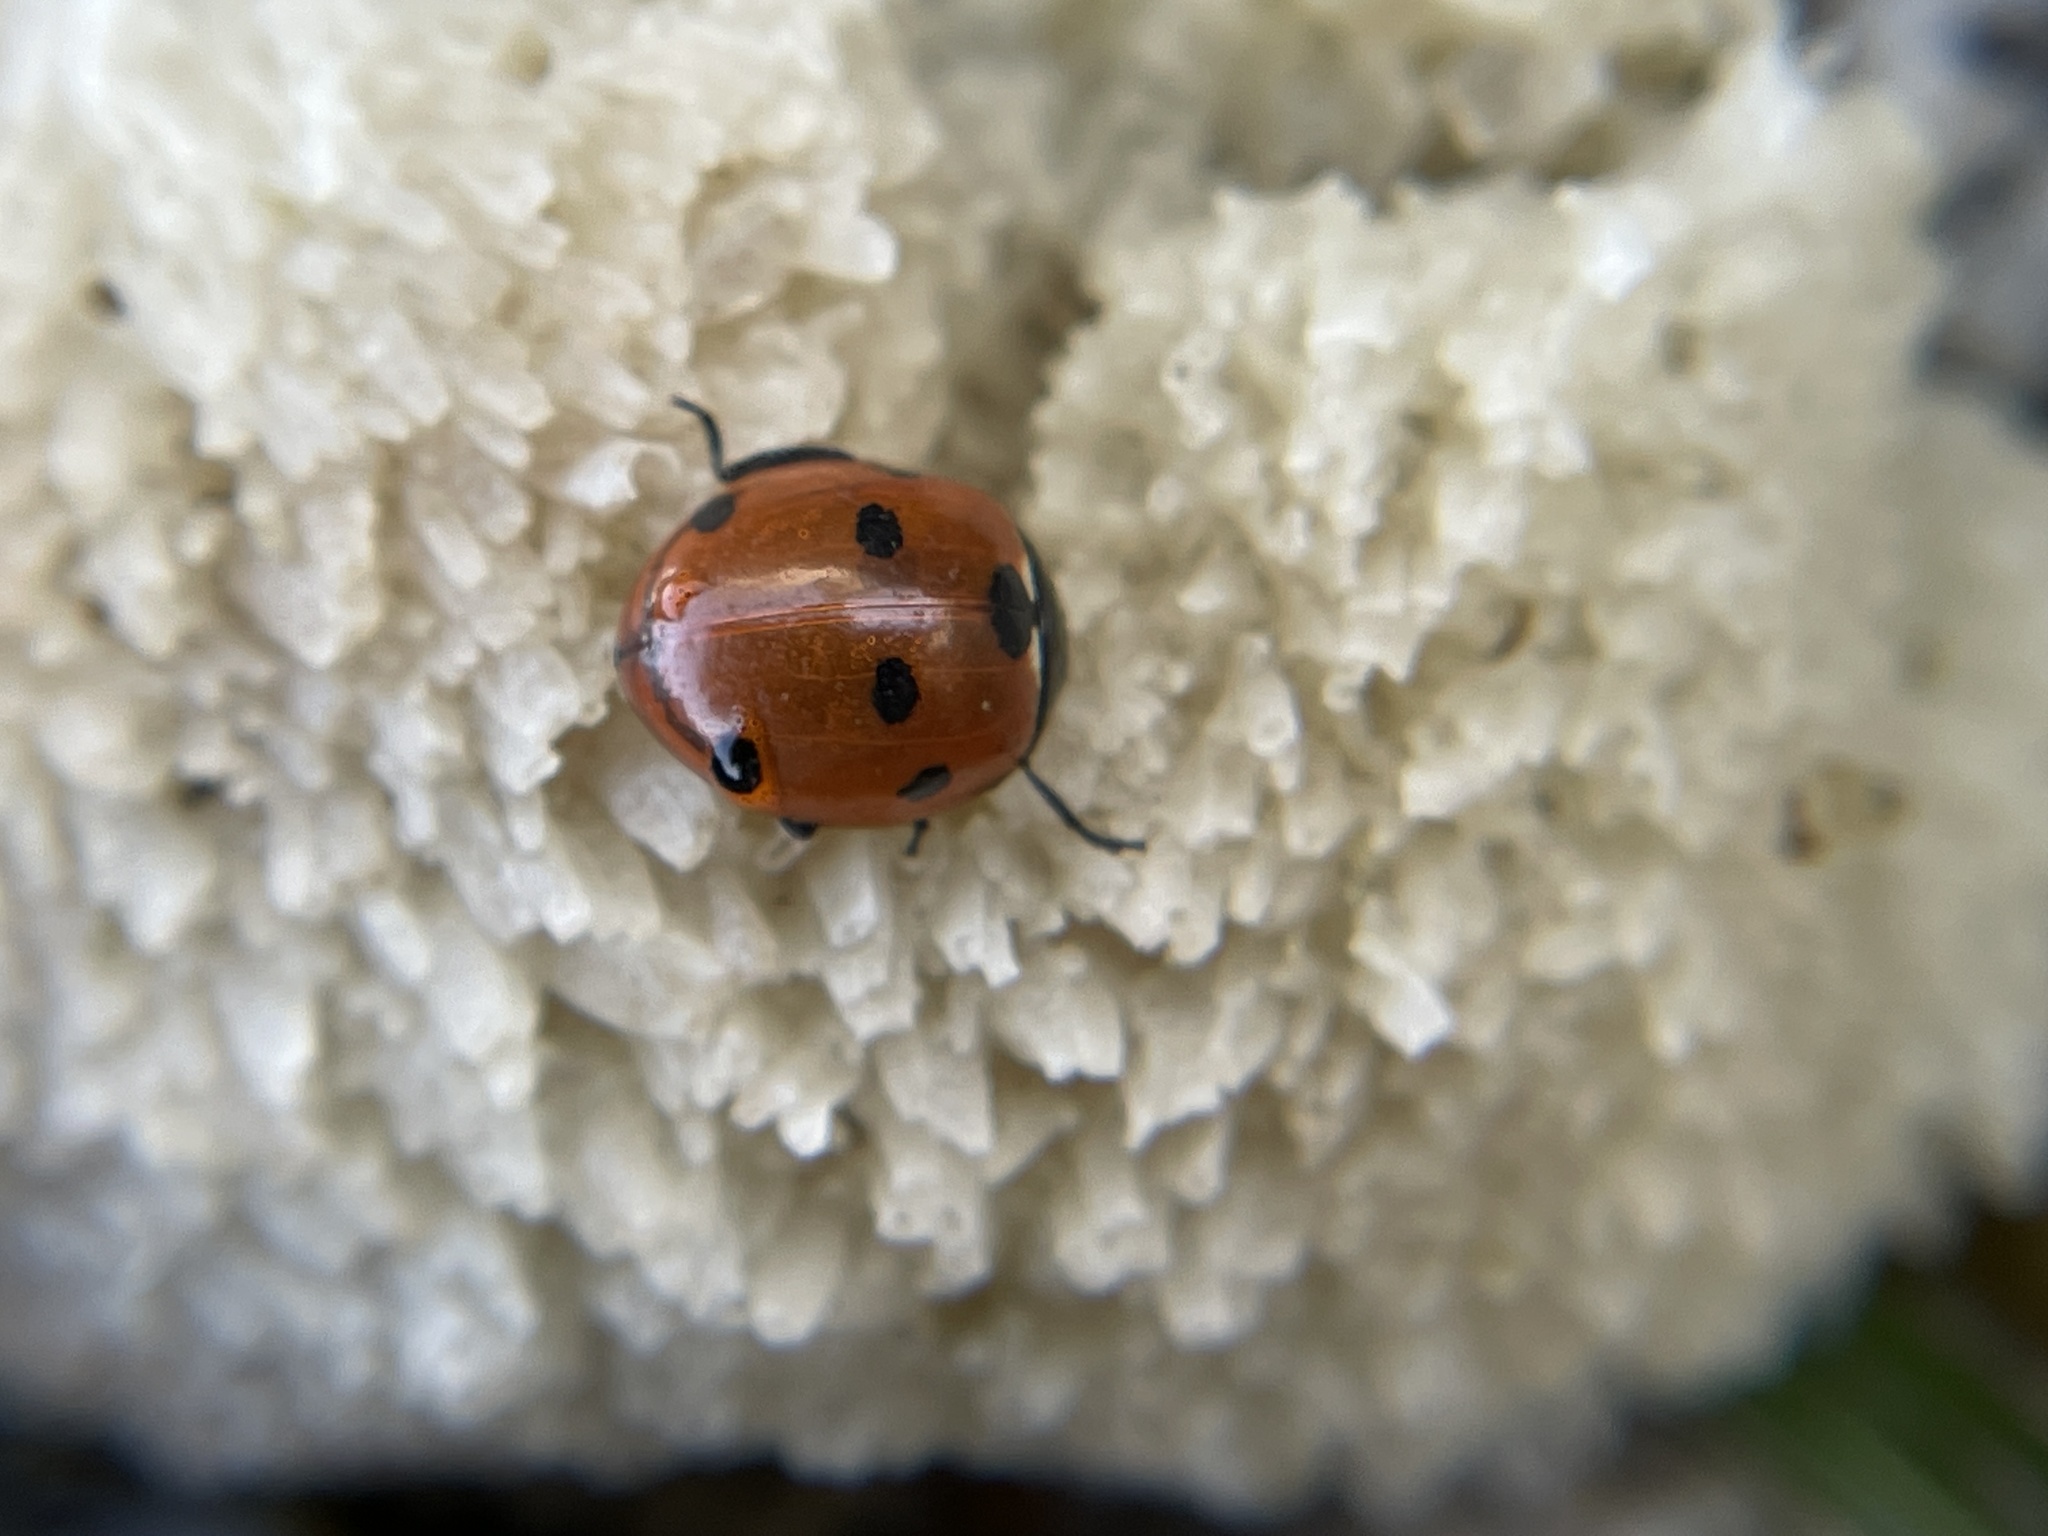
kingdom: Animalia
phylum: Arthropoda
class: Insecta
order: Coleoptera
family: Coccinellidae
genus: Coccinella
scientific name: Coccinella septempunctata
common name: Sevenspotted lady beetle
